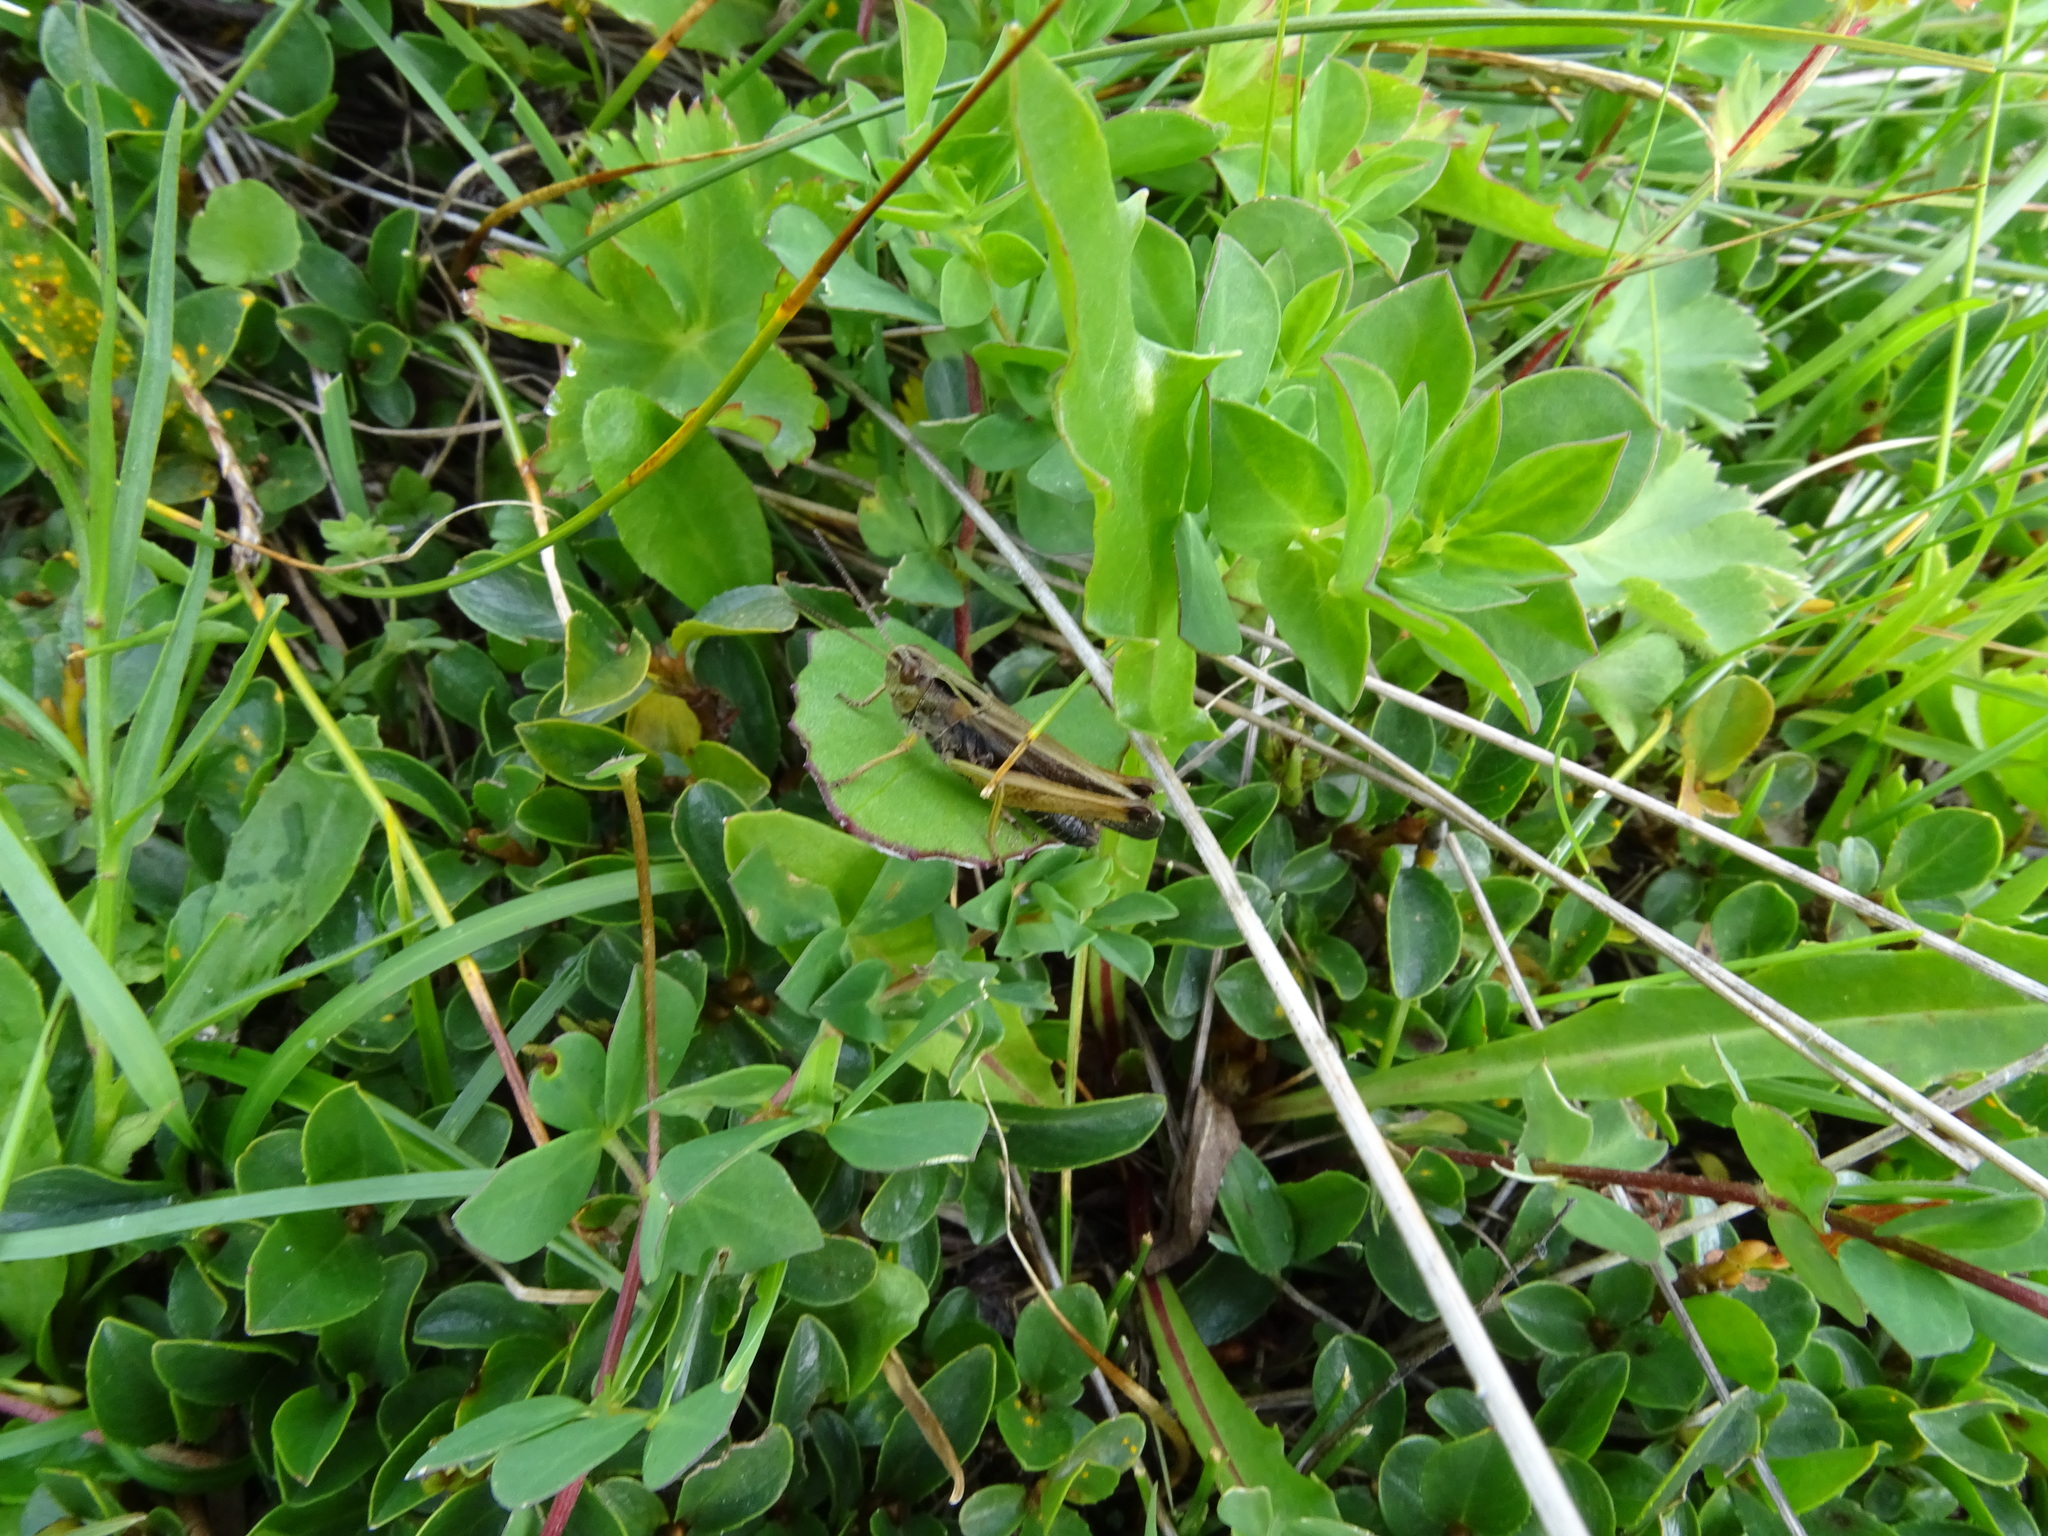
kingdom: Animalia
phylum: Arthropoda
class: Insecta
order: Orthoptera
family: Acrididae
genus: Omocestus
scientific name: Omocestus viridulus
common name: Common green grasshopper
